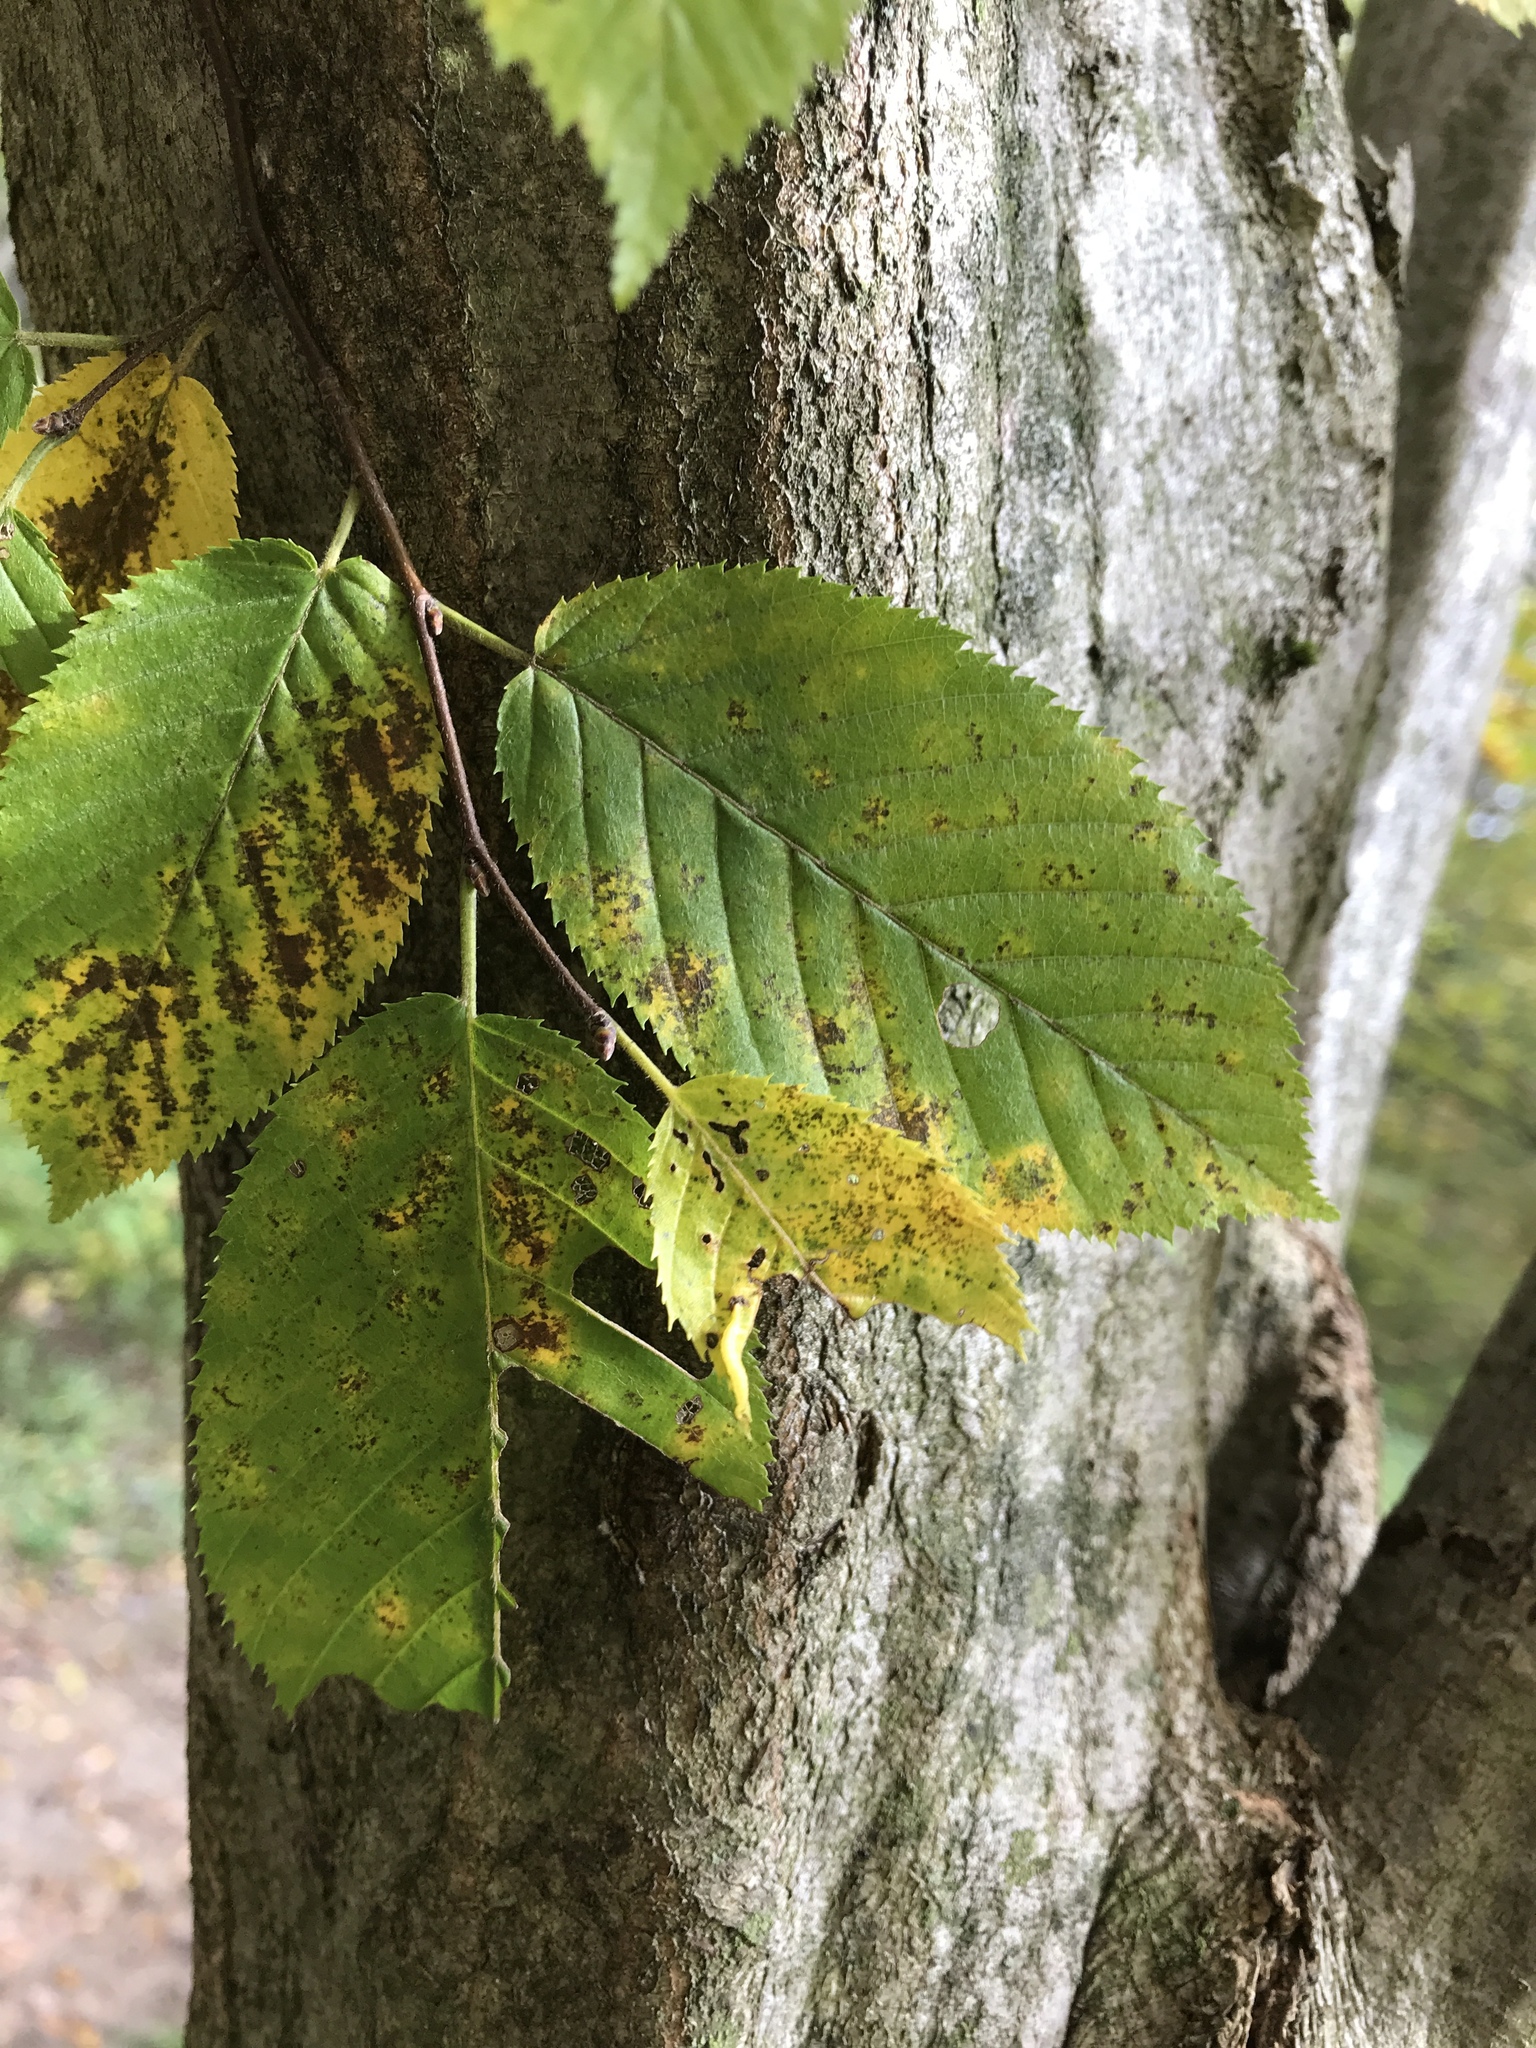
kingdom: Plantae
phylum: Tracheophyta
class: Magnoliopsida
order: Fagales
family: Betulaceae
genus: Carpinus
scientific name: Carpinus caroliniana
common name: American hornbeam
